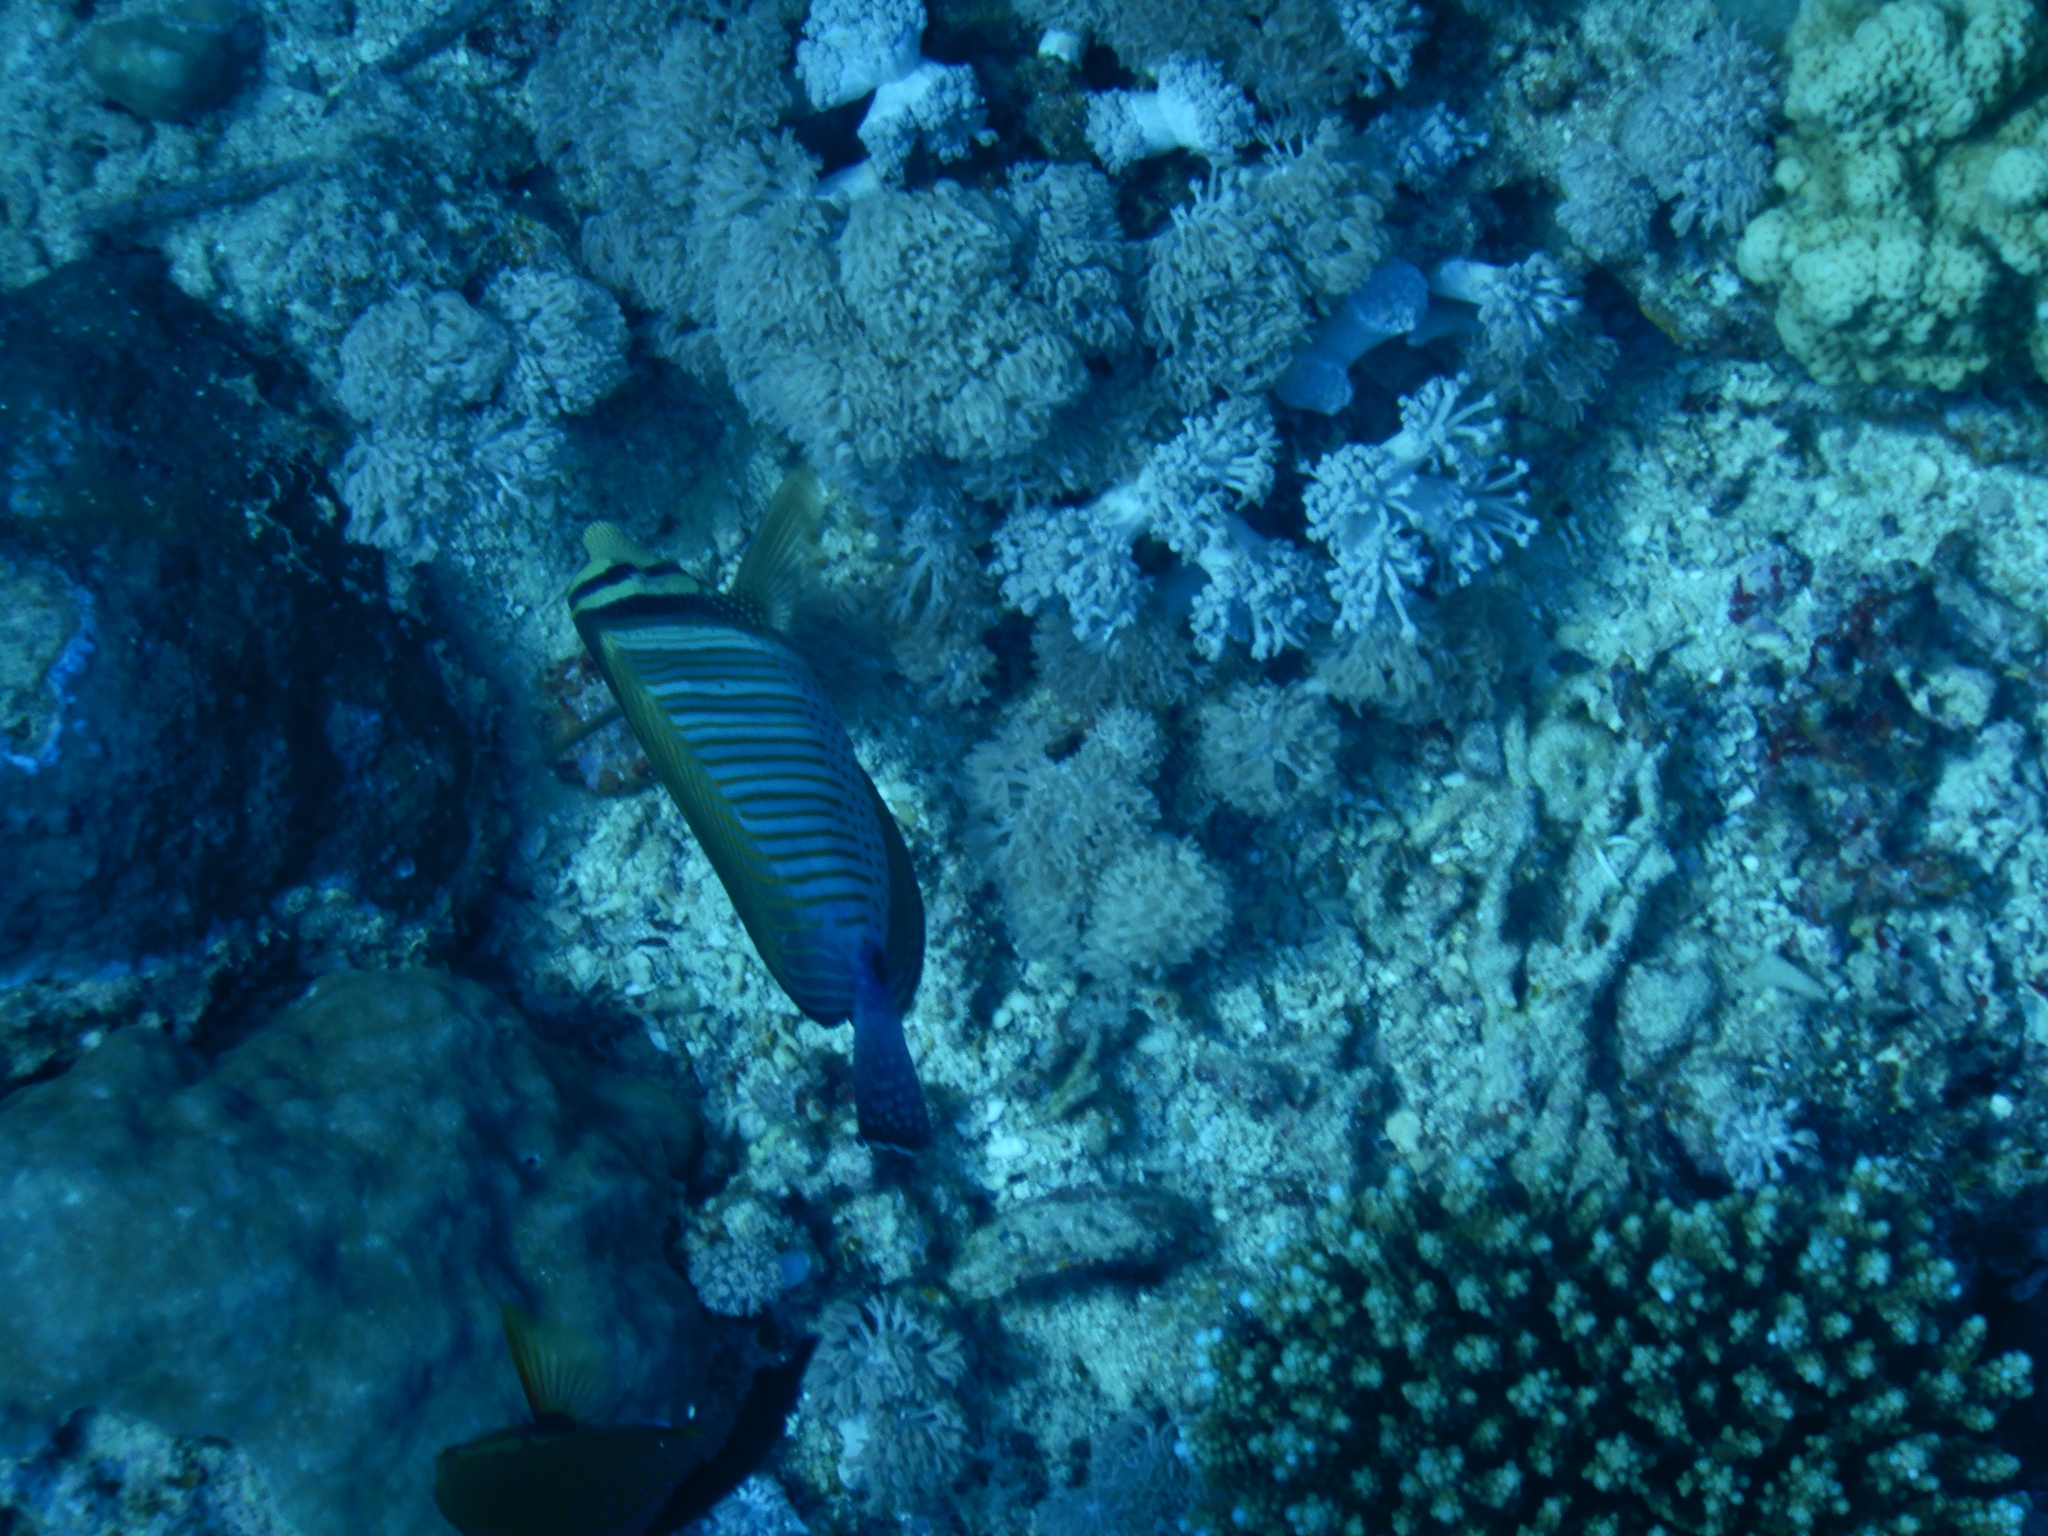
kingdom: Animalia
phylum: Chordata
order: Perciformes
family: Acanthuridae
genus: Zebrasoma
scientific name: Zebrasoma desjardinii
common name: Desjardin's sailfin tang
